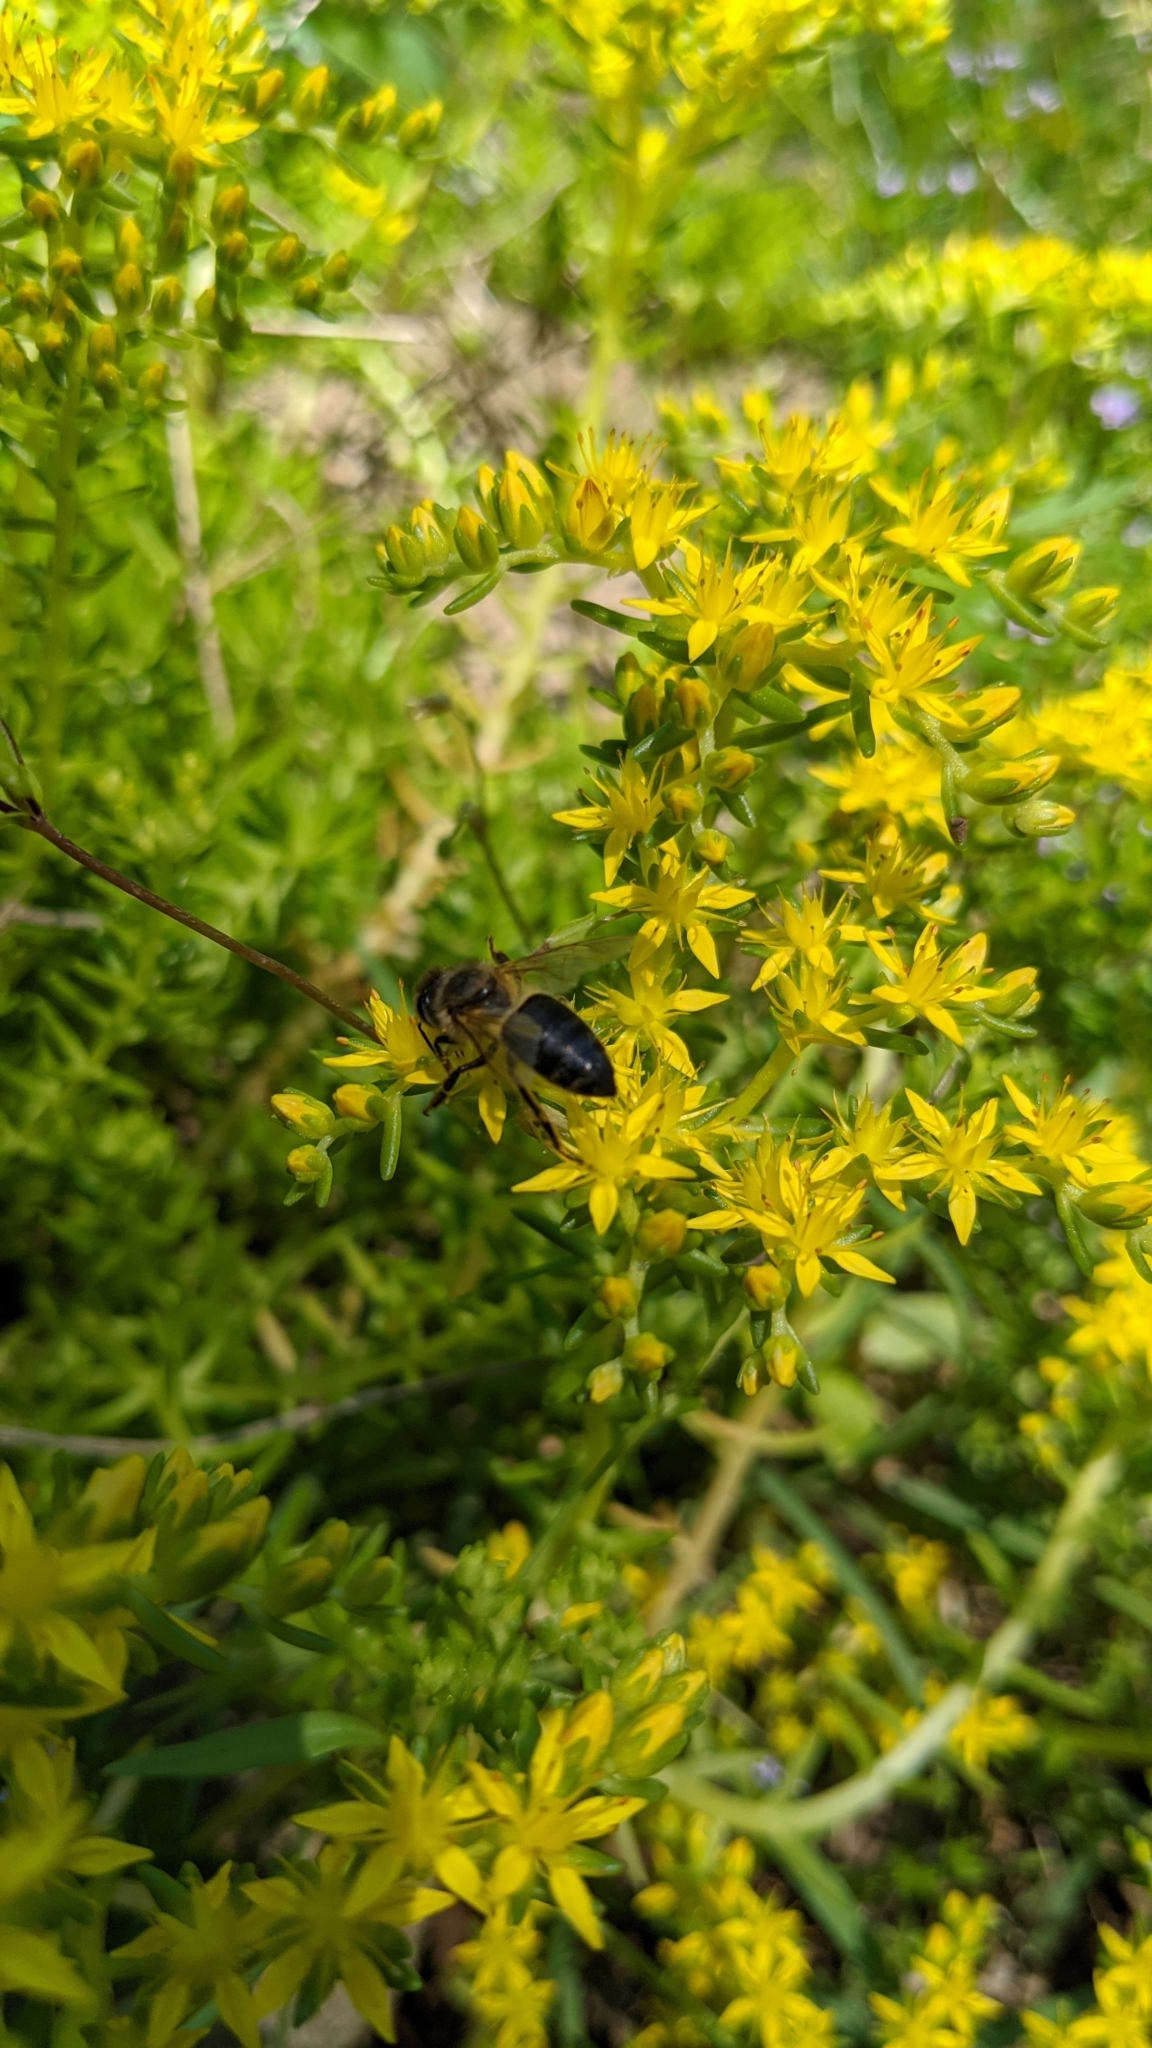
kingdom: Animalia
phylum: Arthropoda
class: Insecta
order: Hymenoptera
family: Apidae
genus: Apis
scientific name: Apis mellifera
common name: Honey bee
